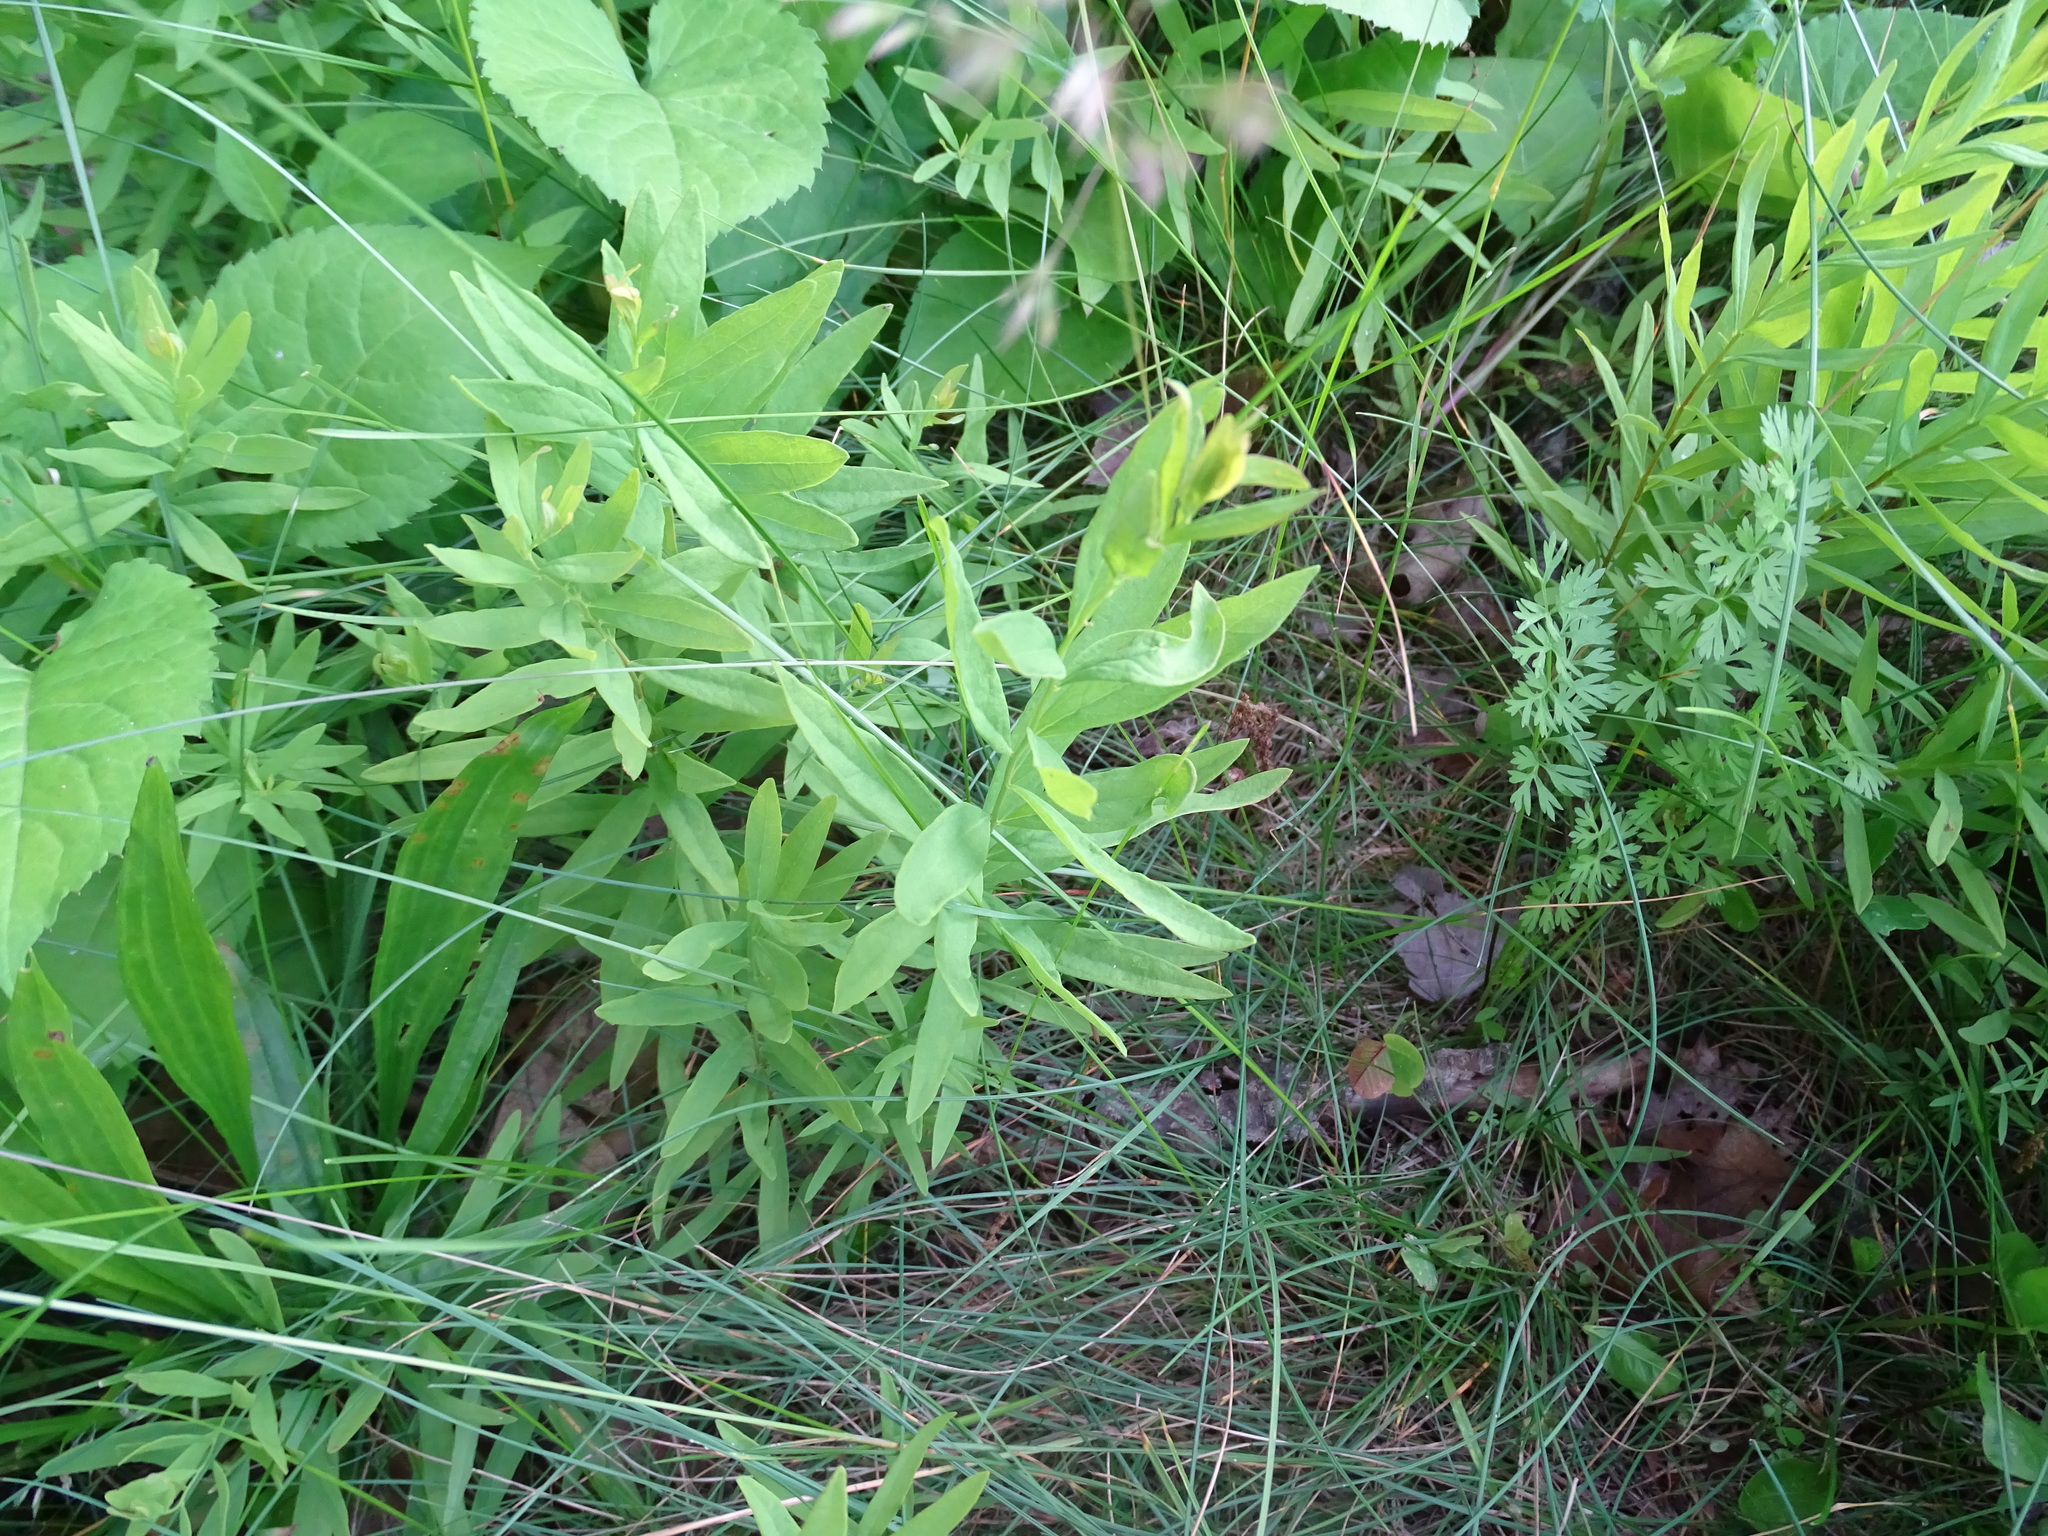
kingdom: Plantae
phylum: Tracheophyta
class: Magnoliopsida
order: Santalales
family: Comandraceae
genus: Comandra
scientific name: Comandra umbellata
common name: Bastard toadflax
